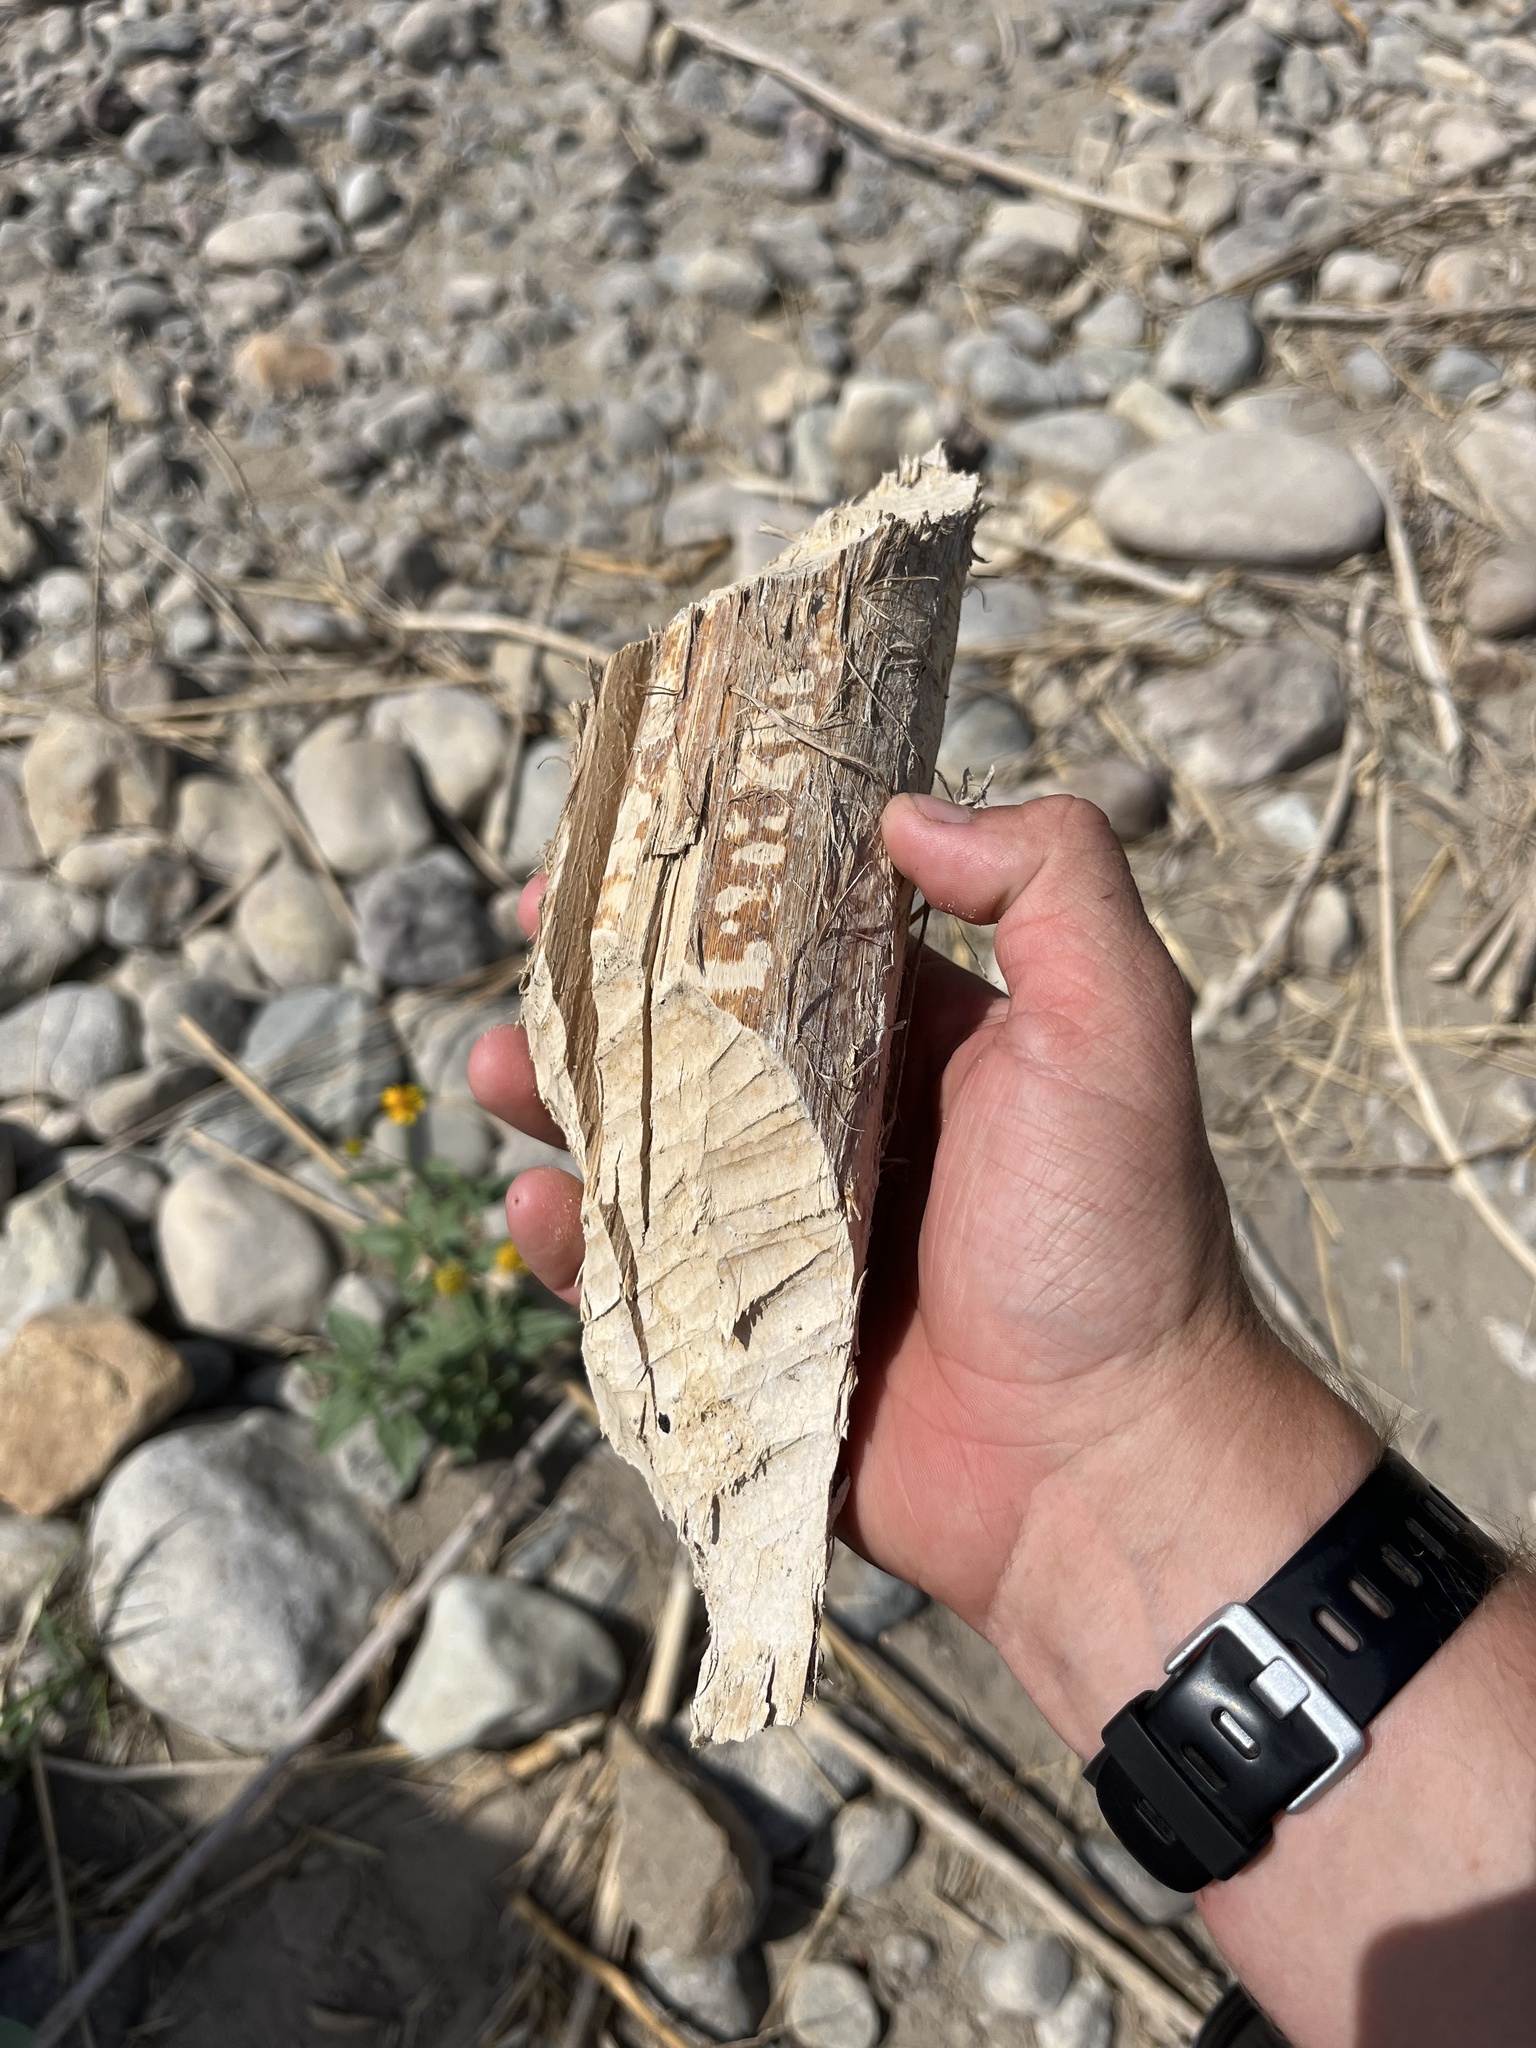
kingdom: Animalia
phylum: Chordata
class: Mammalia
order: Rodentia
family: Castoridae
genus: Castor
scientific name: Castor canadensis
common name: American beaver
